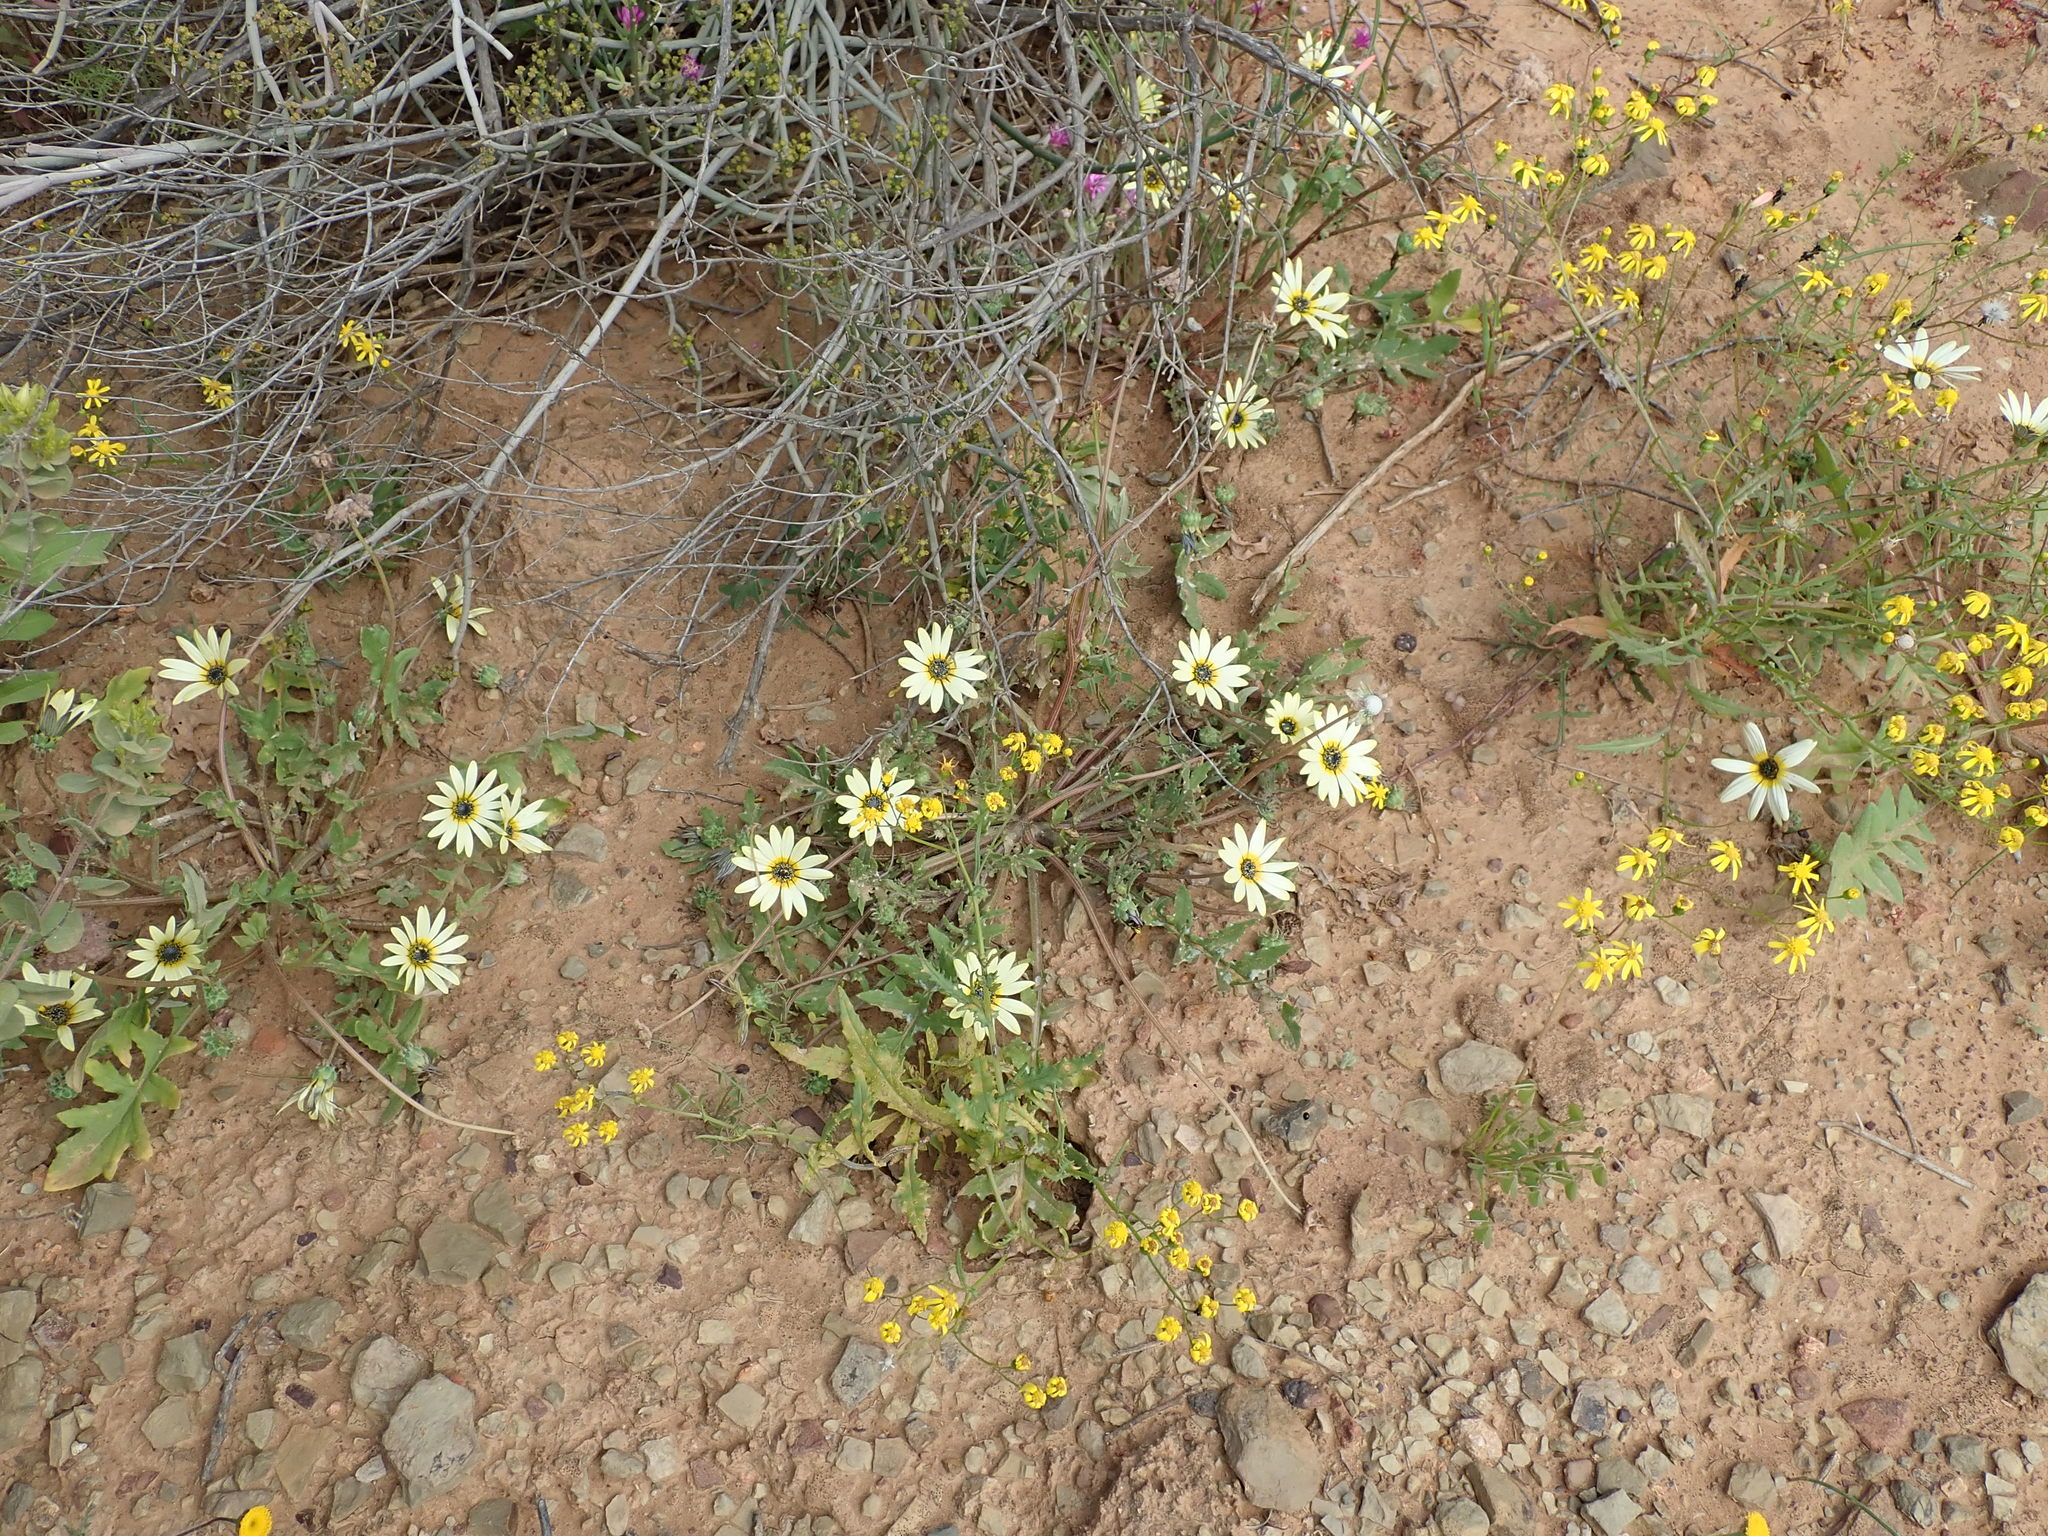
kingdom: Plantae
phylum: Tracheophyta
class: Magnoliopsida
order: Asterales
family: Asteraceae
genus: Arctotheca
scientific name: Arctotheca calendula
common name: Capeweed
